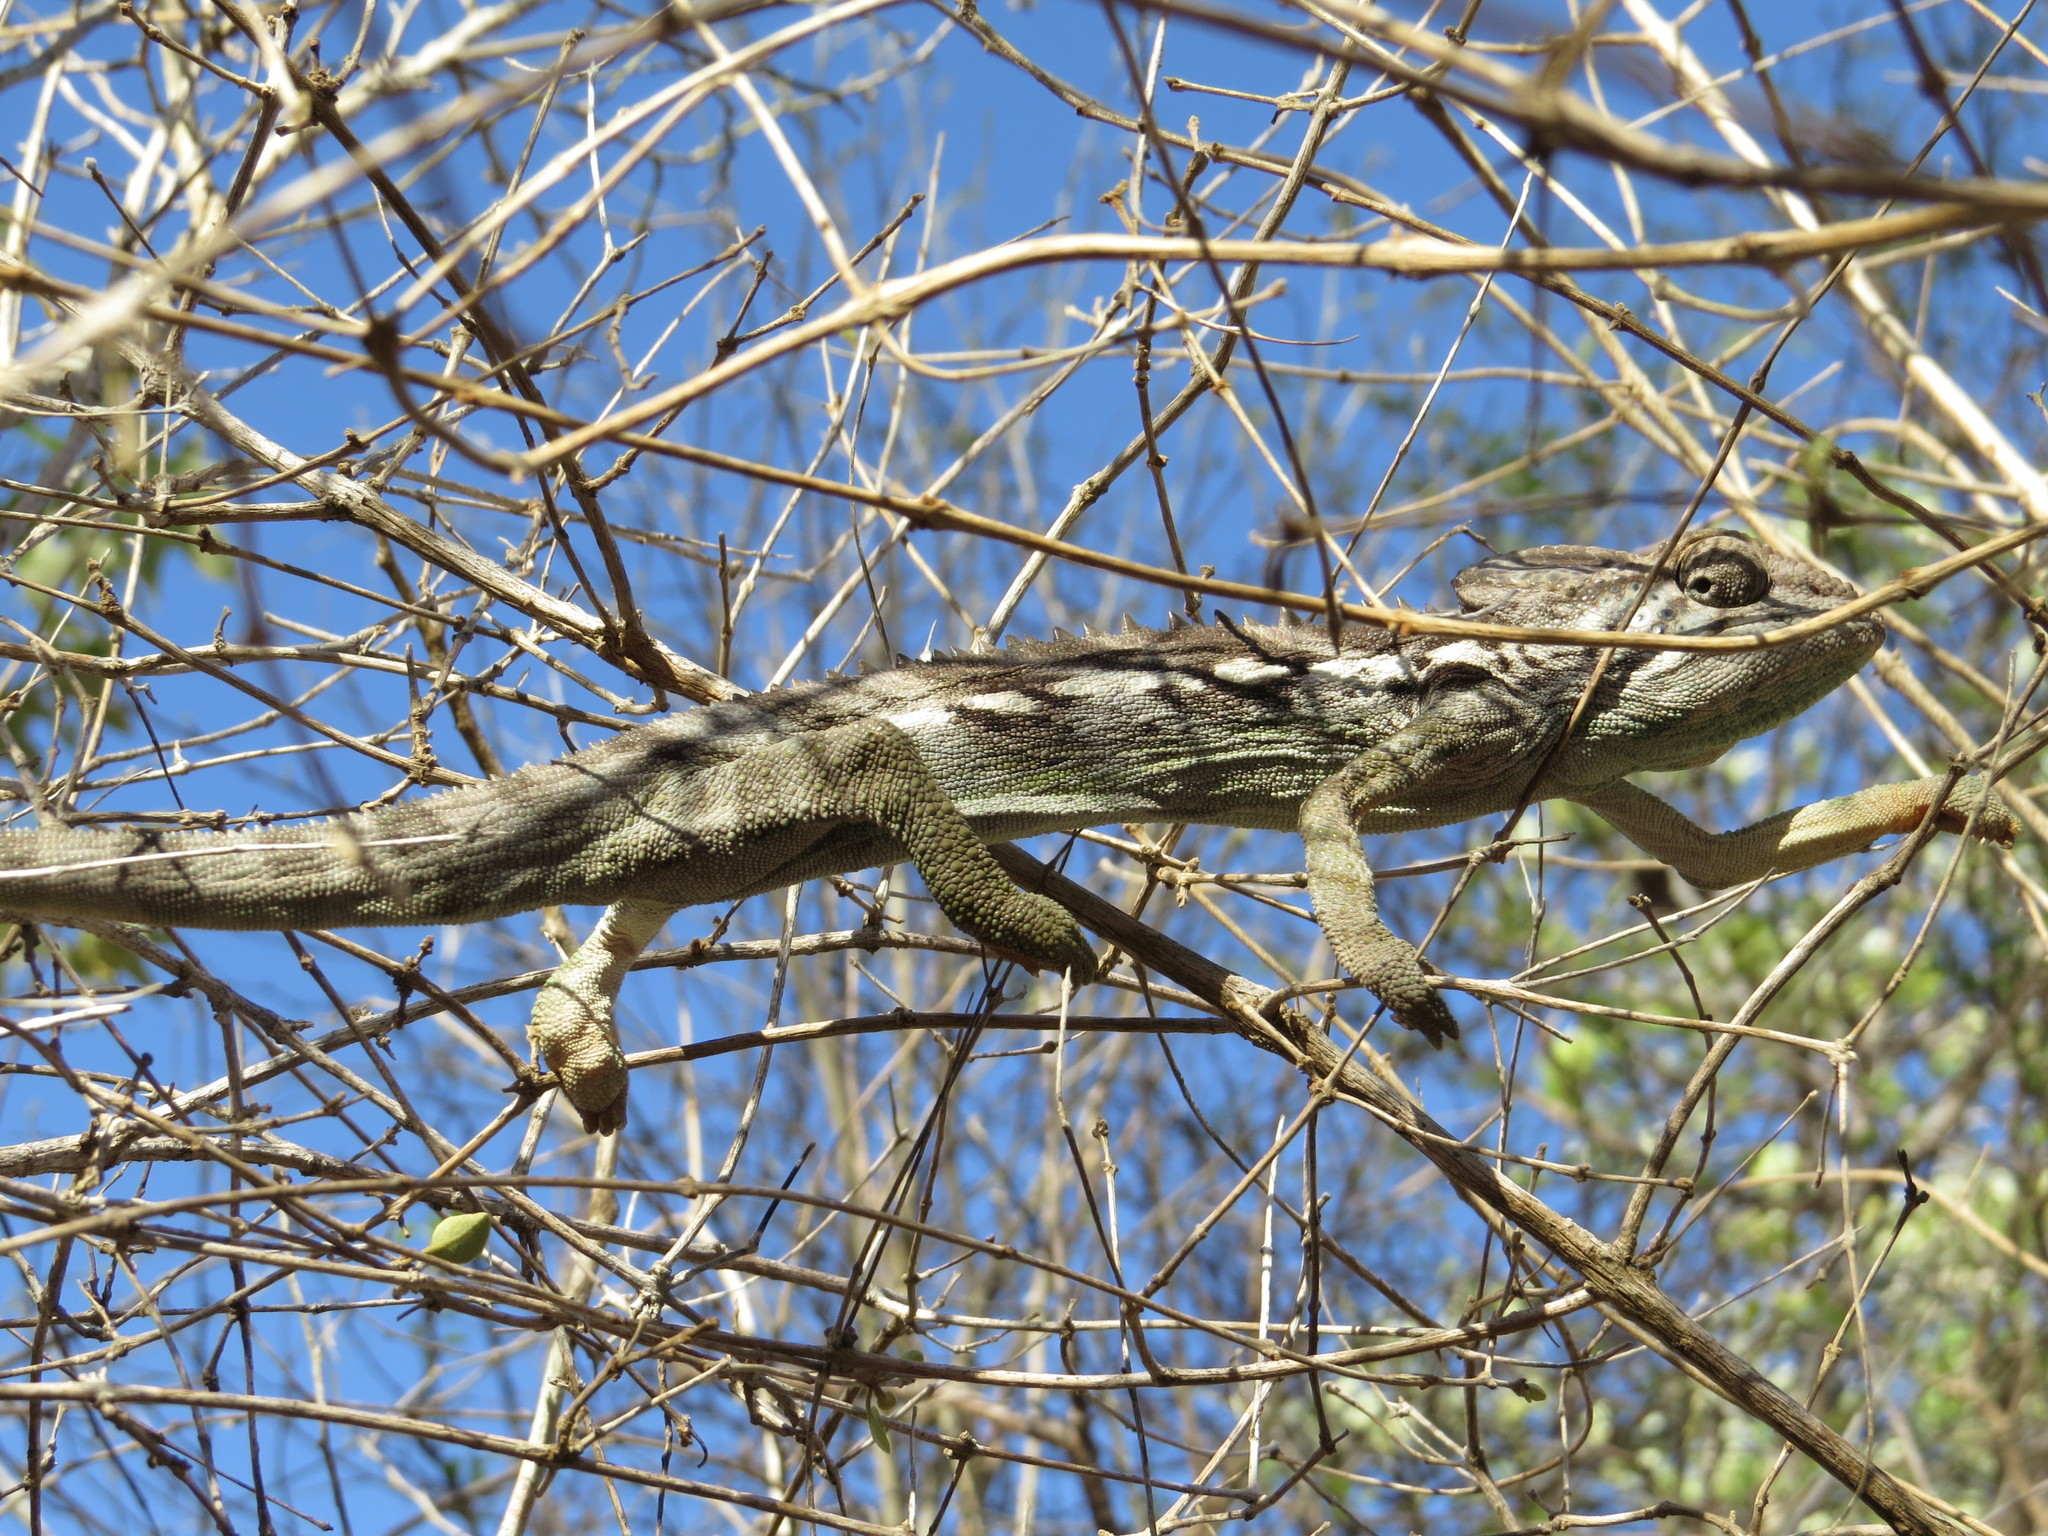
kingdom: Animalia
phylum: Chordata
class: Squamata
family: Chamaeleonidae
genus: Furcifer
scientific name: Furcifer verrucosus
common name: Warty chameleon
